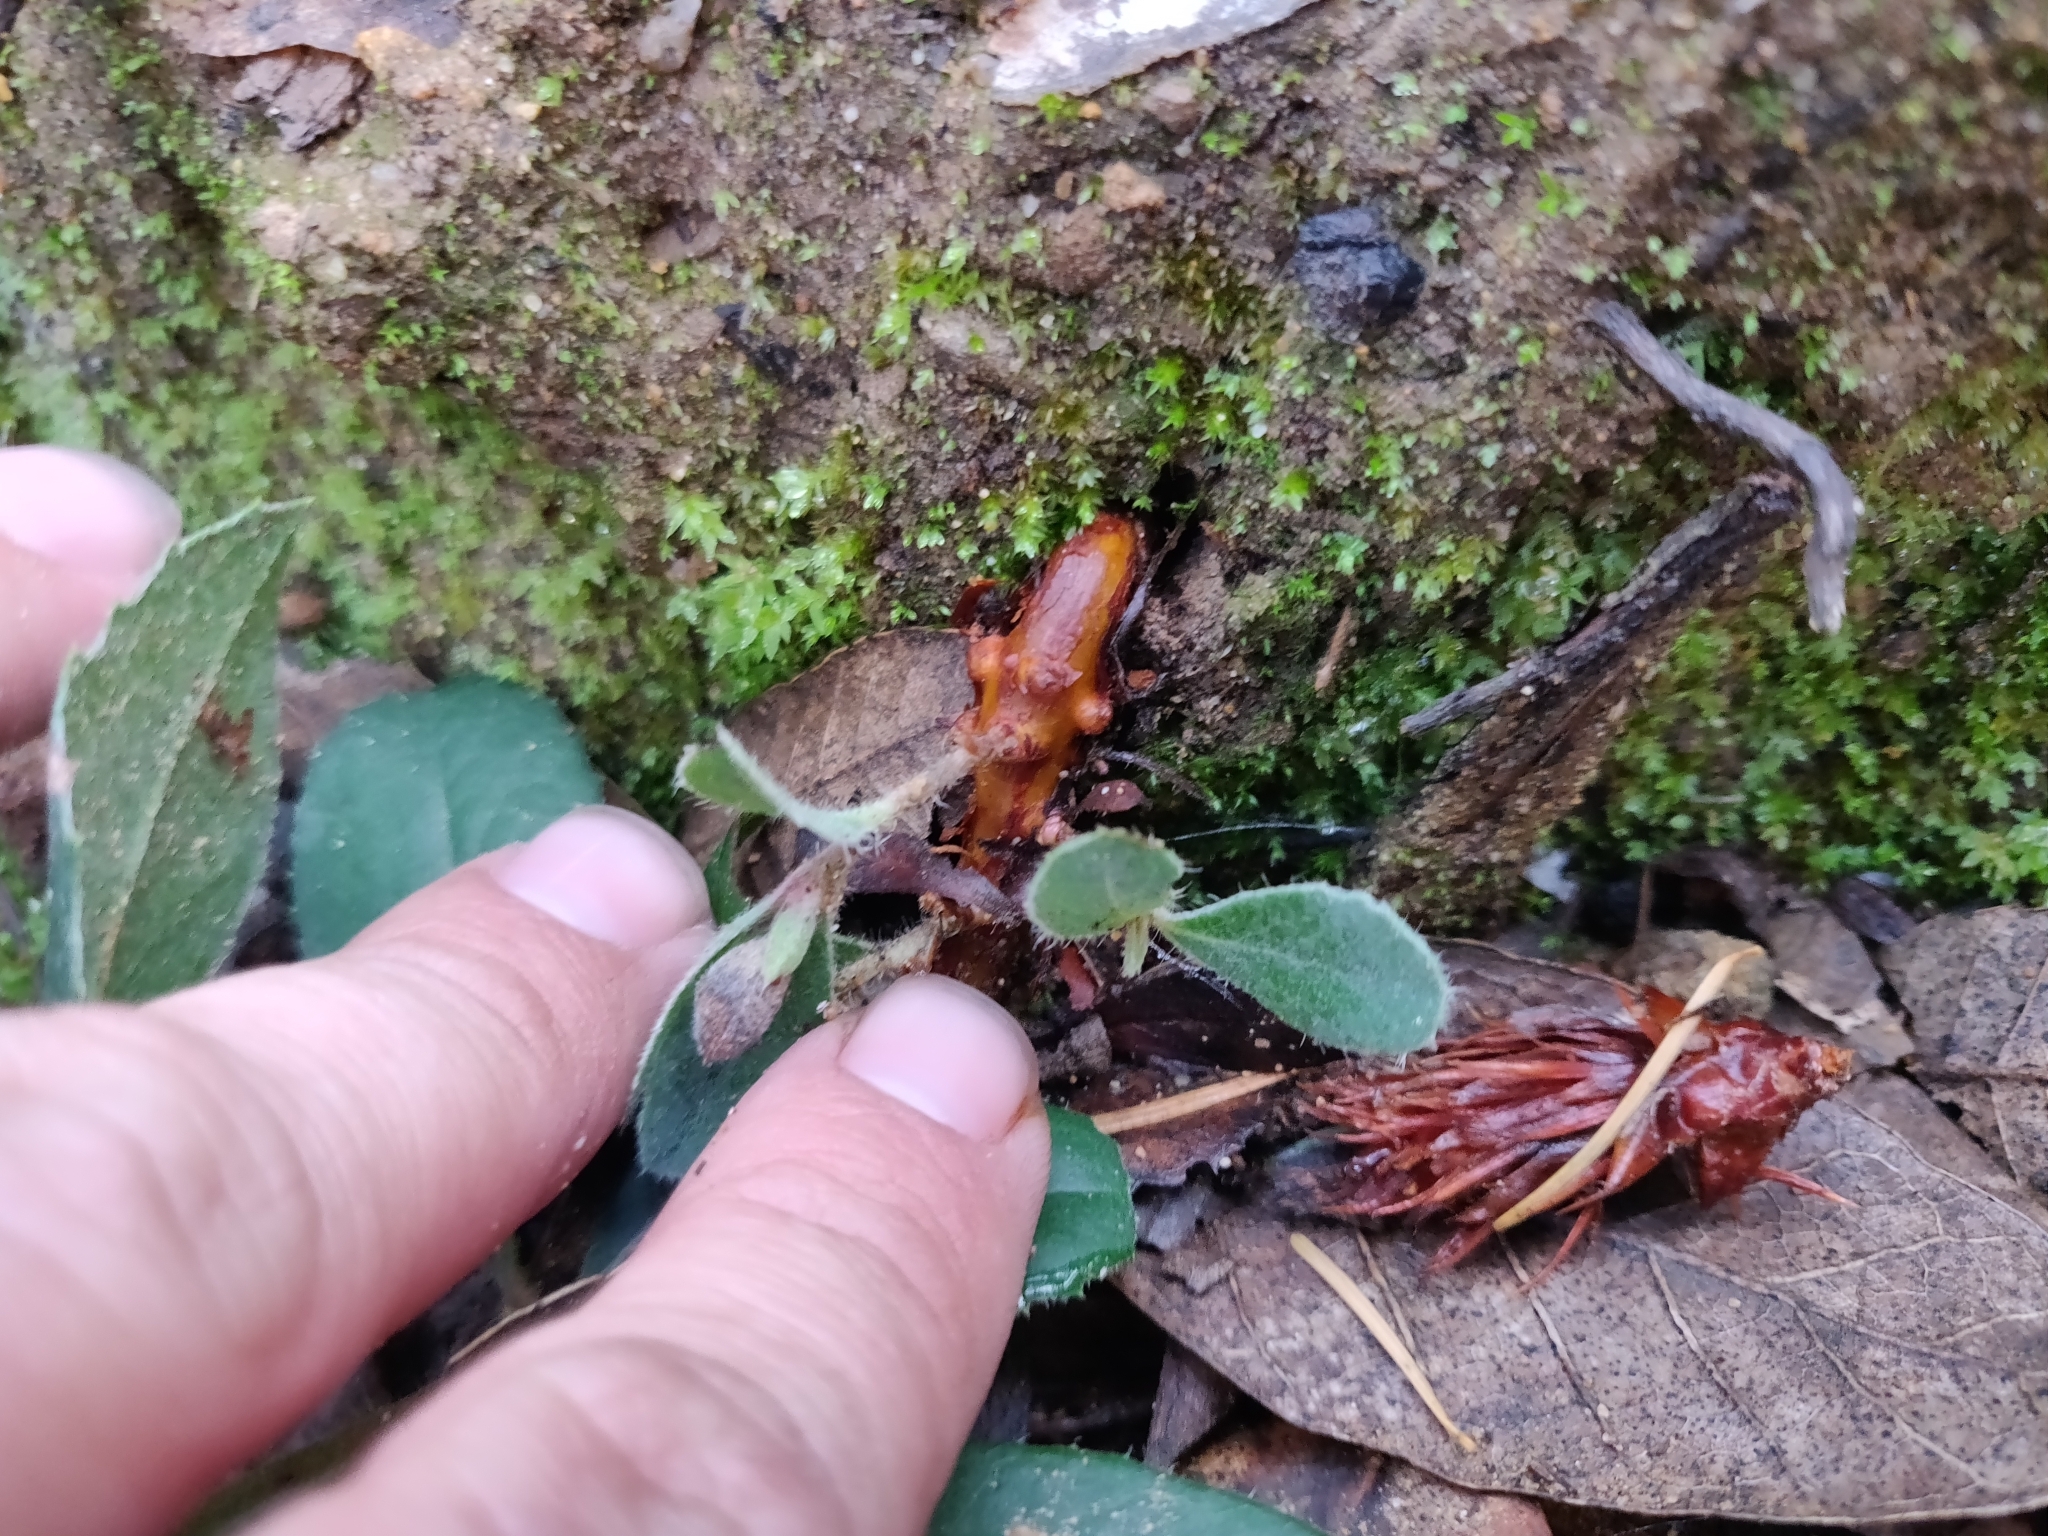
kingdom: Plantae
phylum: Tracheophyta
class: Magnoliopsida
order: Ericales
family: Ericaceae
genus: Arctostaphylos
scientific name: Arctostaphylos crustacea
